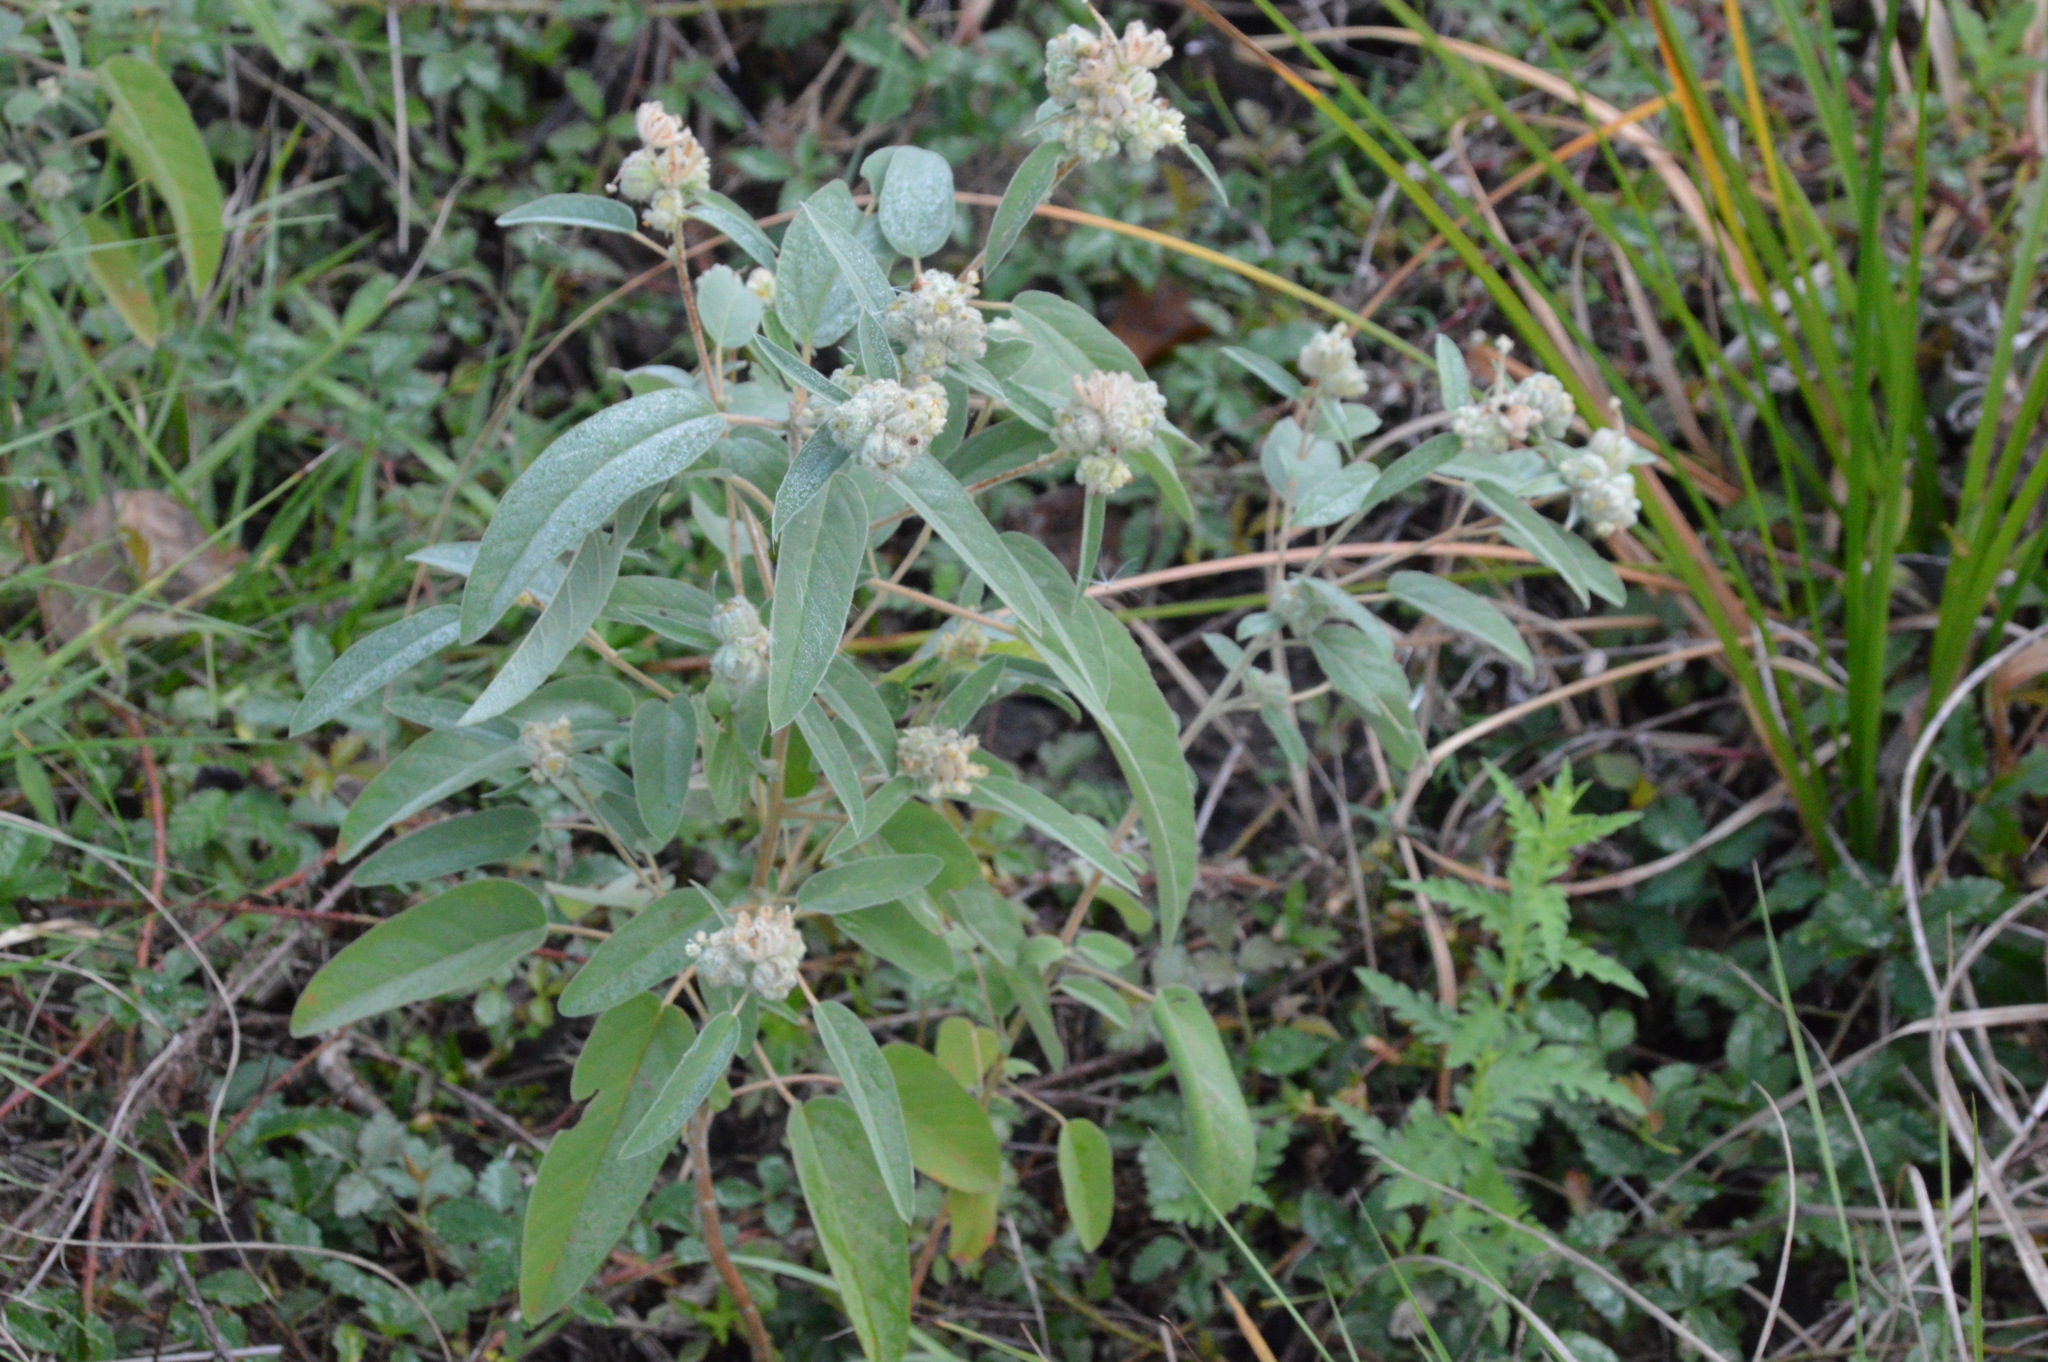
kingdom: Plantae
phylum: Tracheophyta
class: Magnoliopsida
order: Malpighiales
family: Euphorbiaceae
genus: Croton
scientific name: Croton lindheimeri
